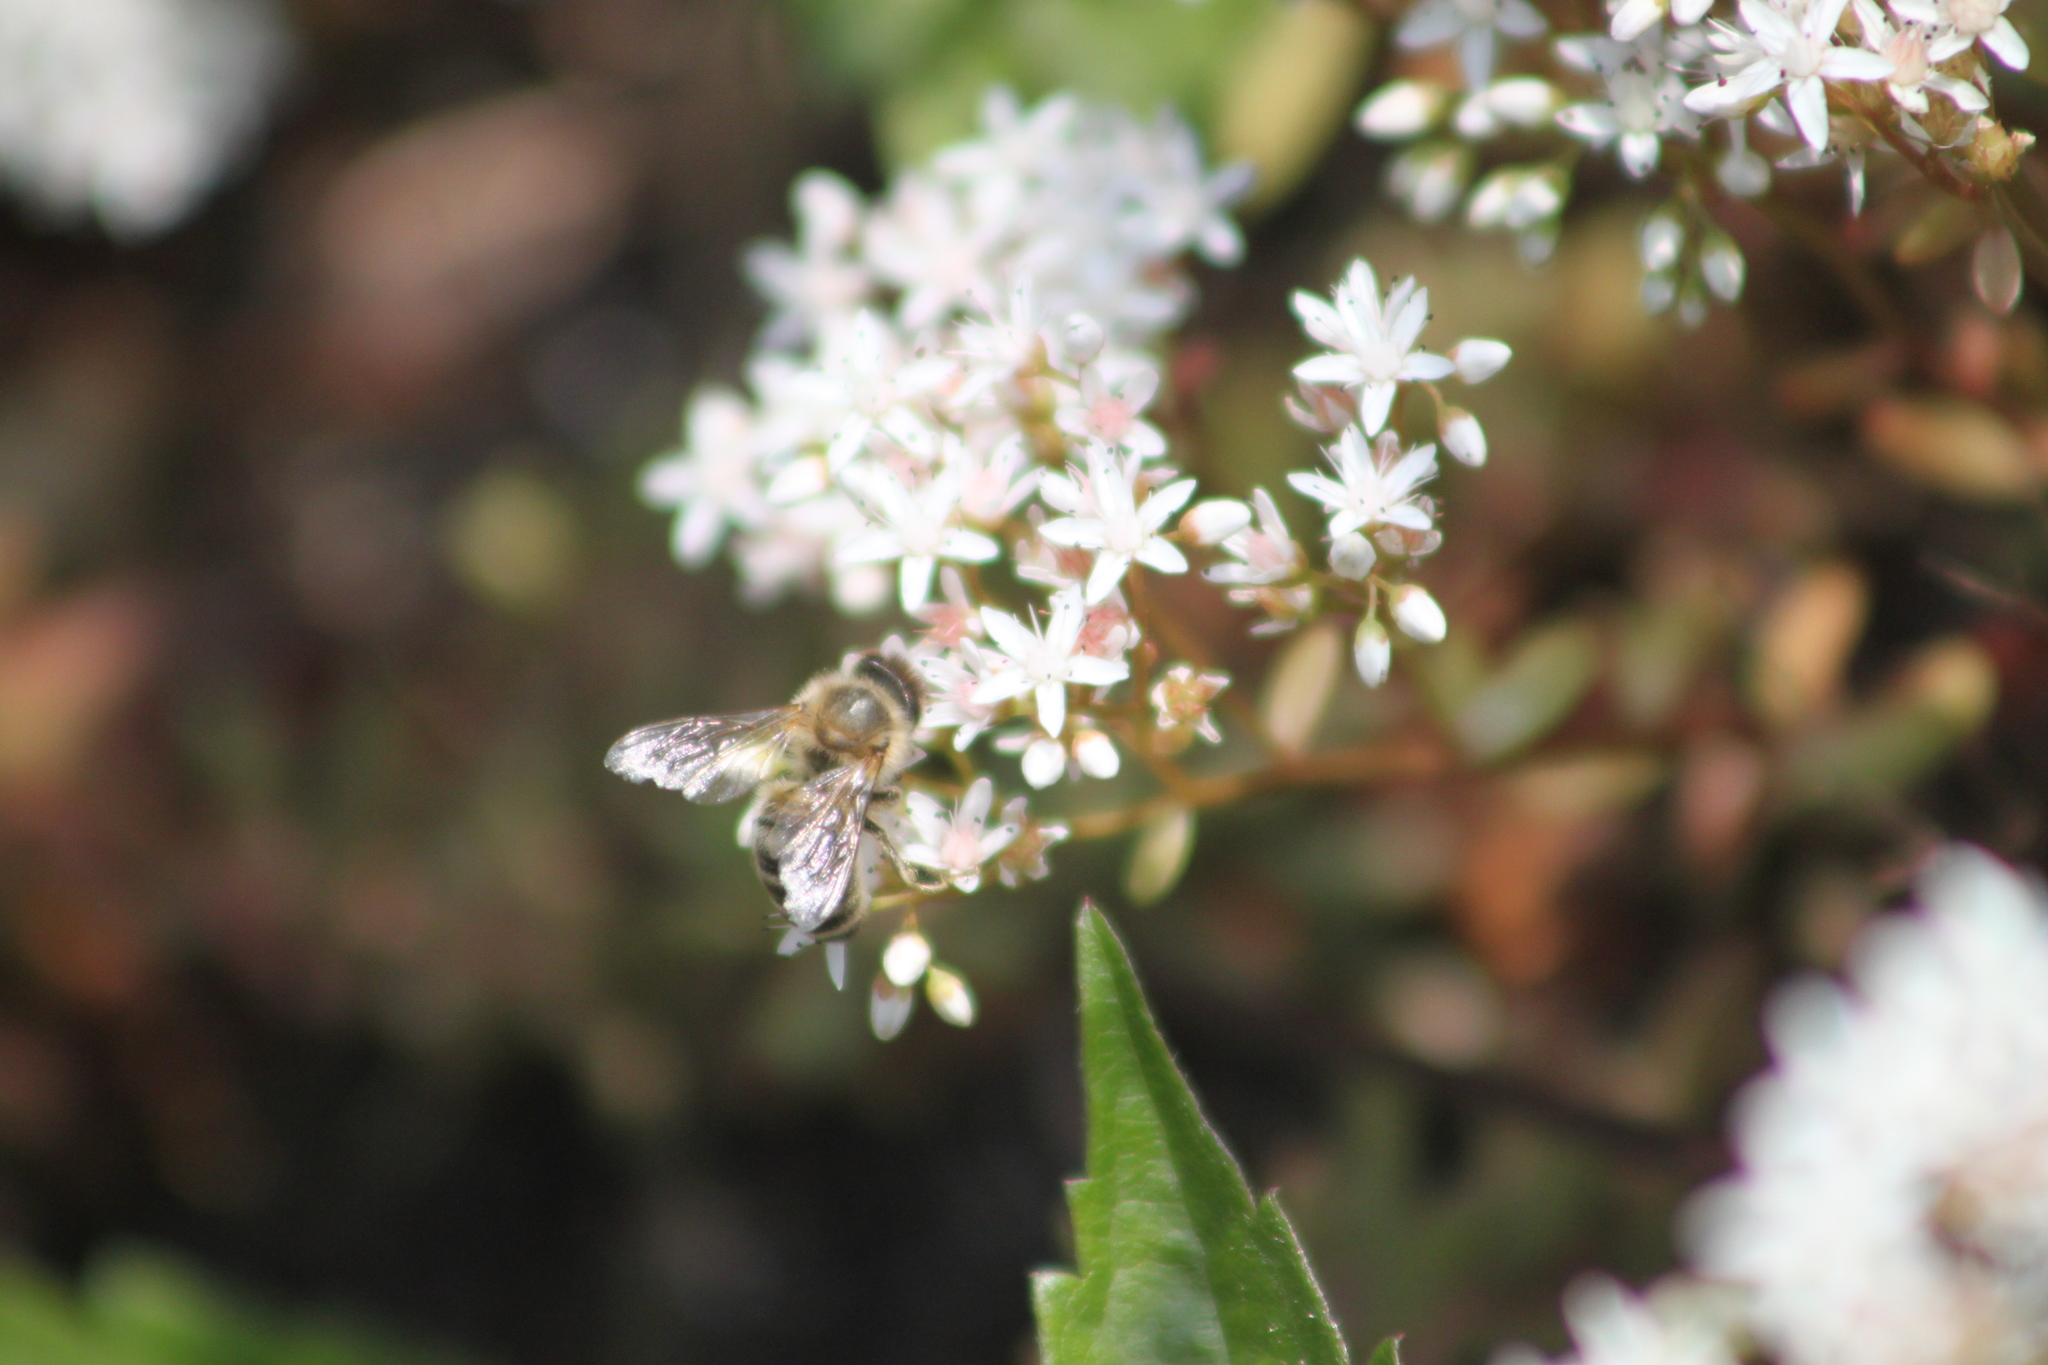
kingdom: Animalia
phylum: Arthropoda
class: Insecta
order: Hymenoptera
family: Apidae
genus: Apis
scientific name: Apis mellifera
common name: Honey bee
